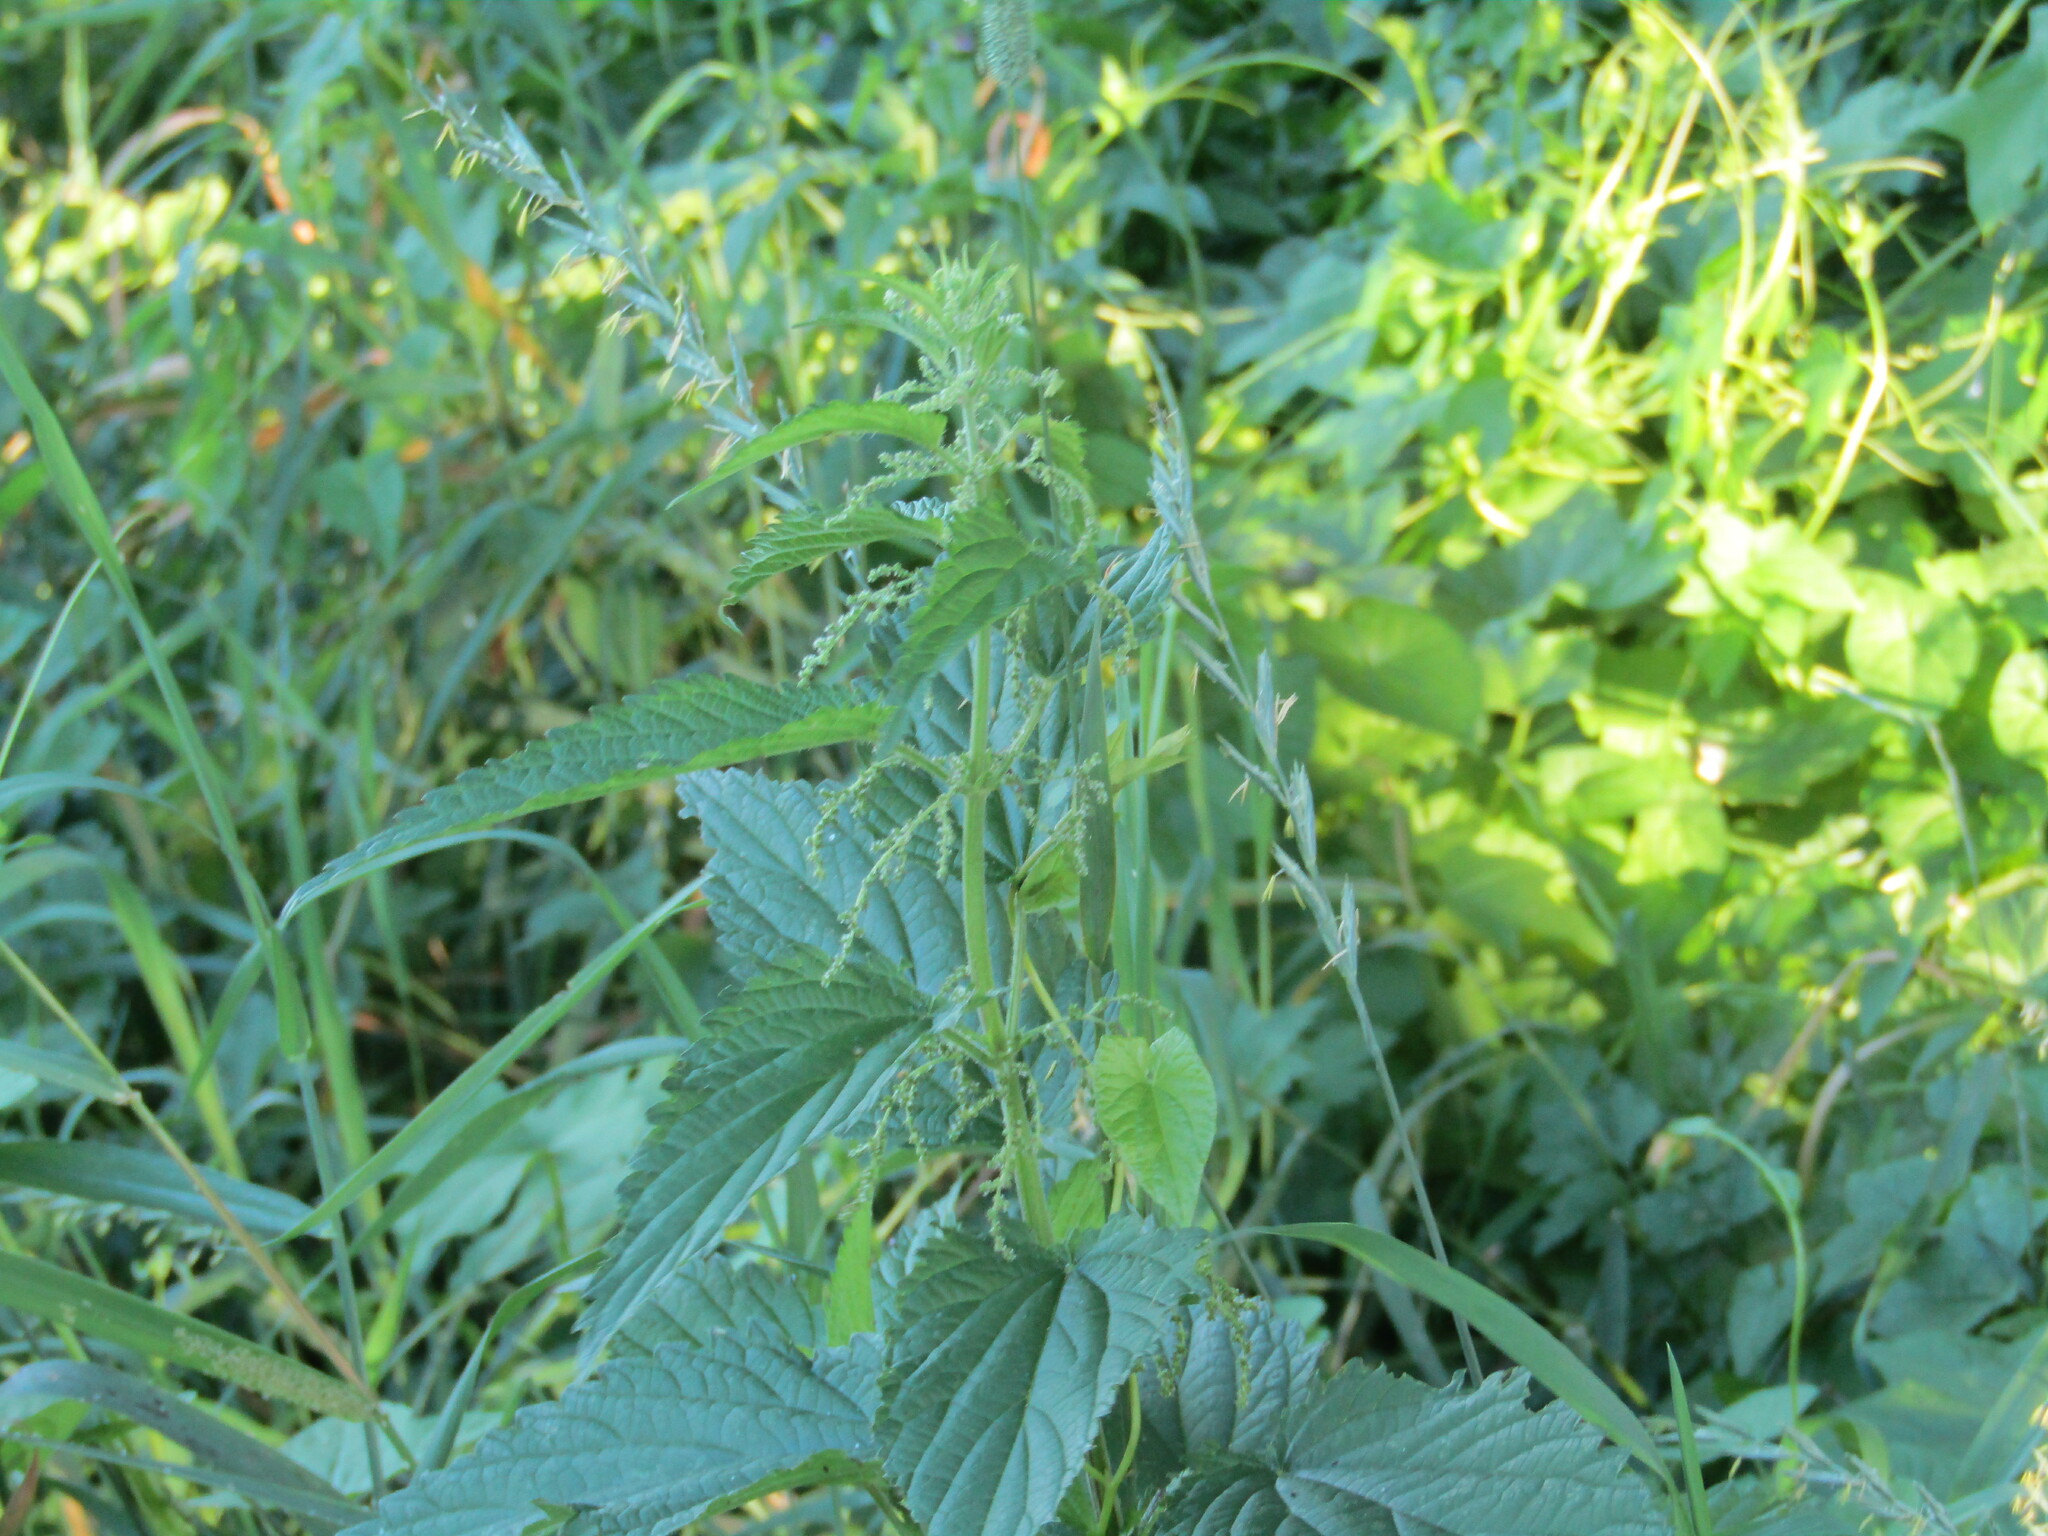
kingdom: Plantae
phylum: Tracheophyta
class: Magnoliopsida
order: Rosales
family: Urticaceae
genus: Urtica
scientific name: Urtica dioica
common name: Common nettle
